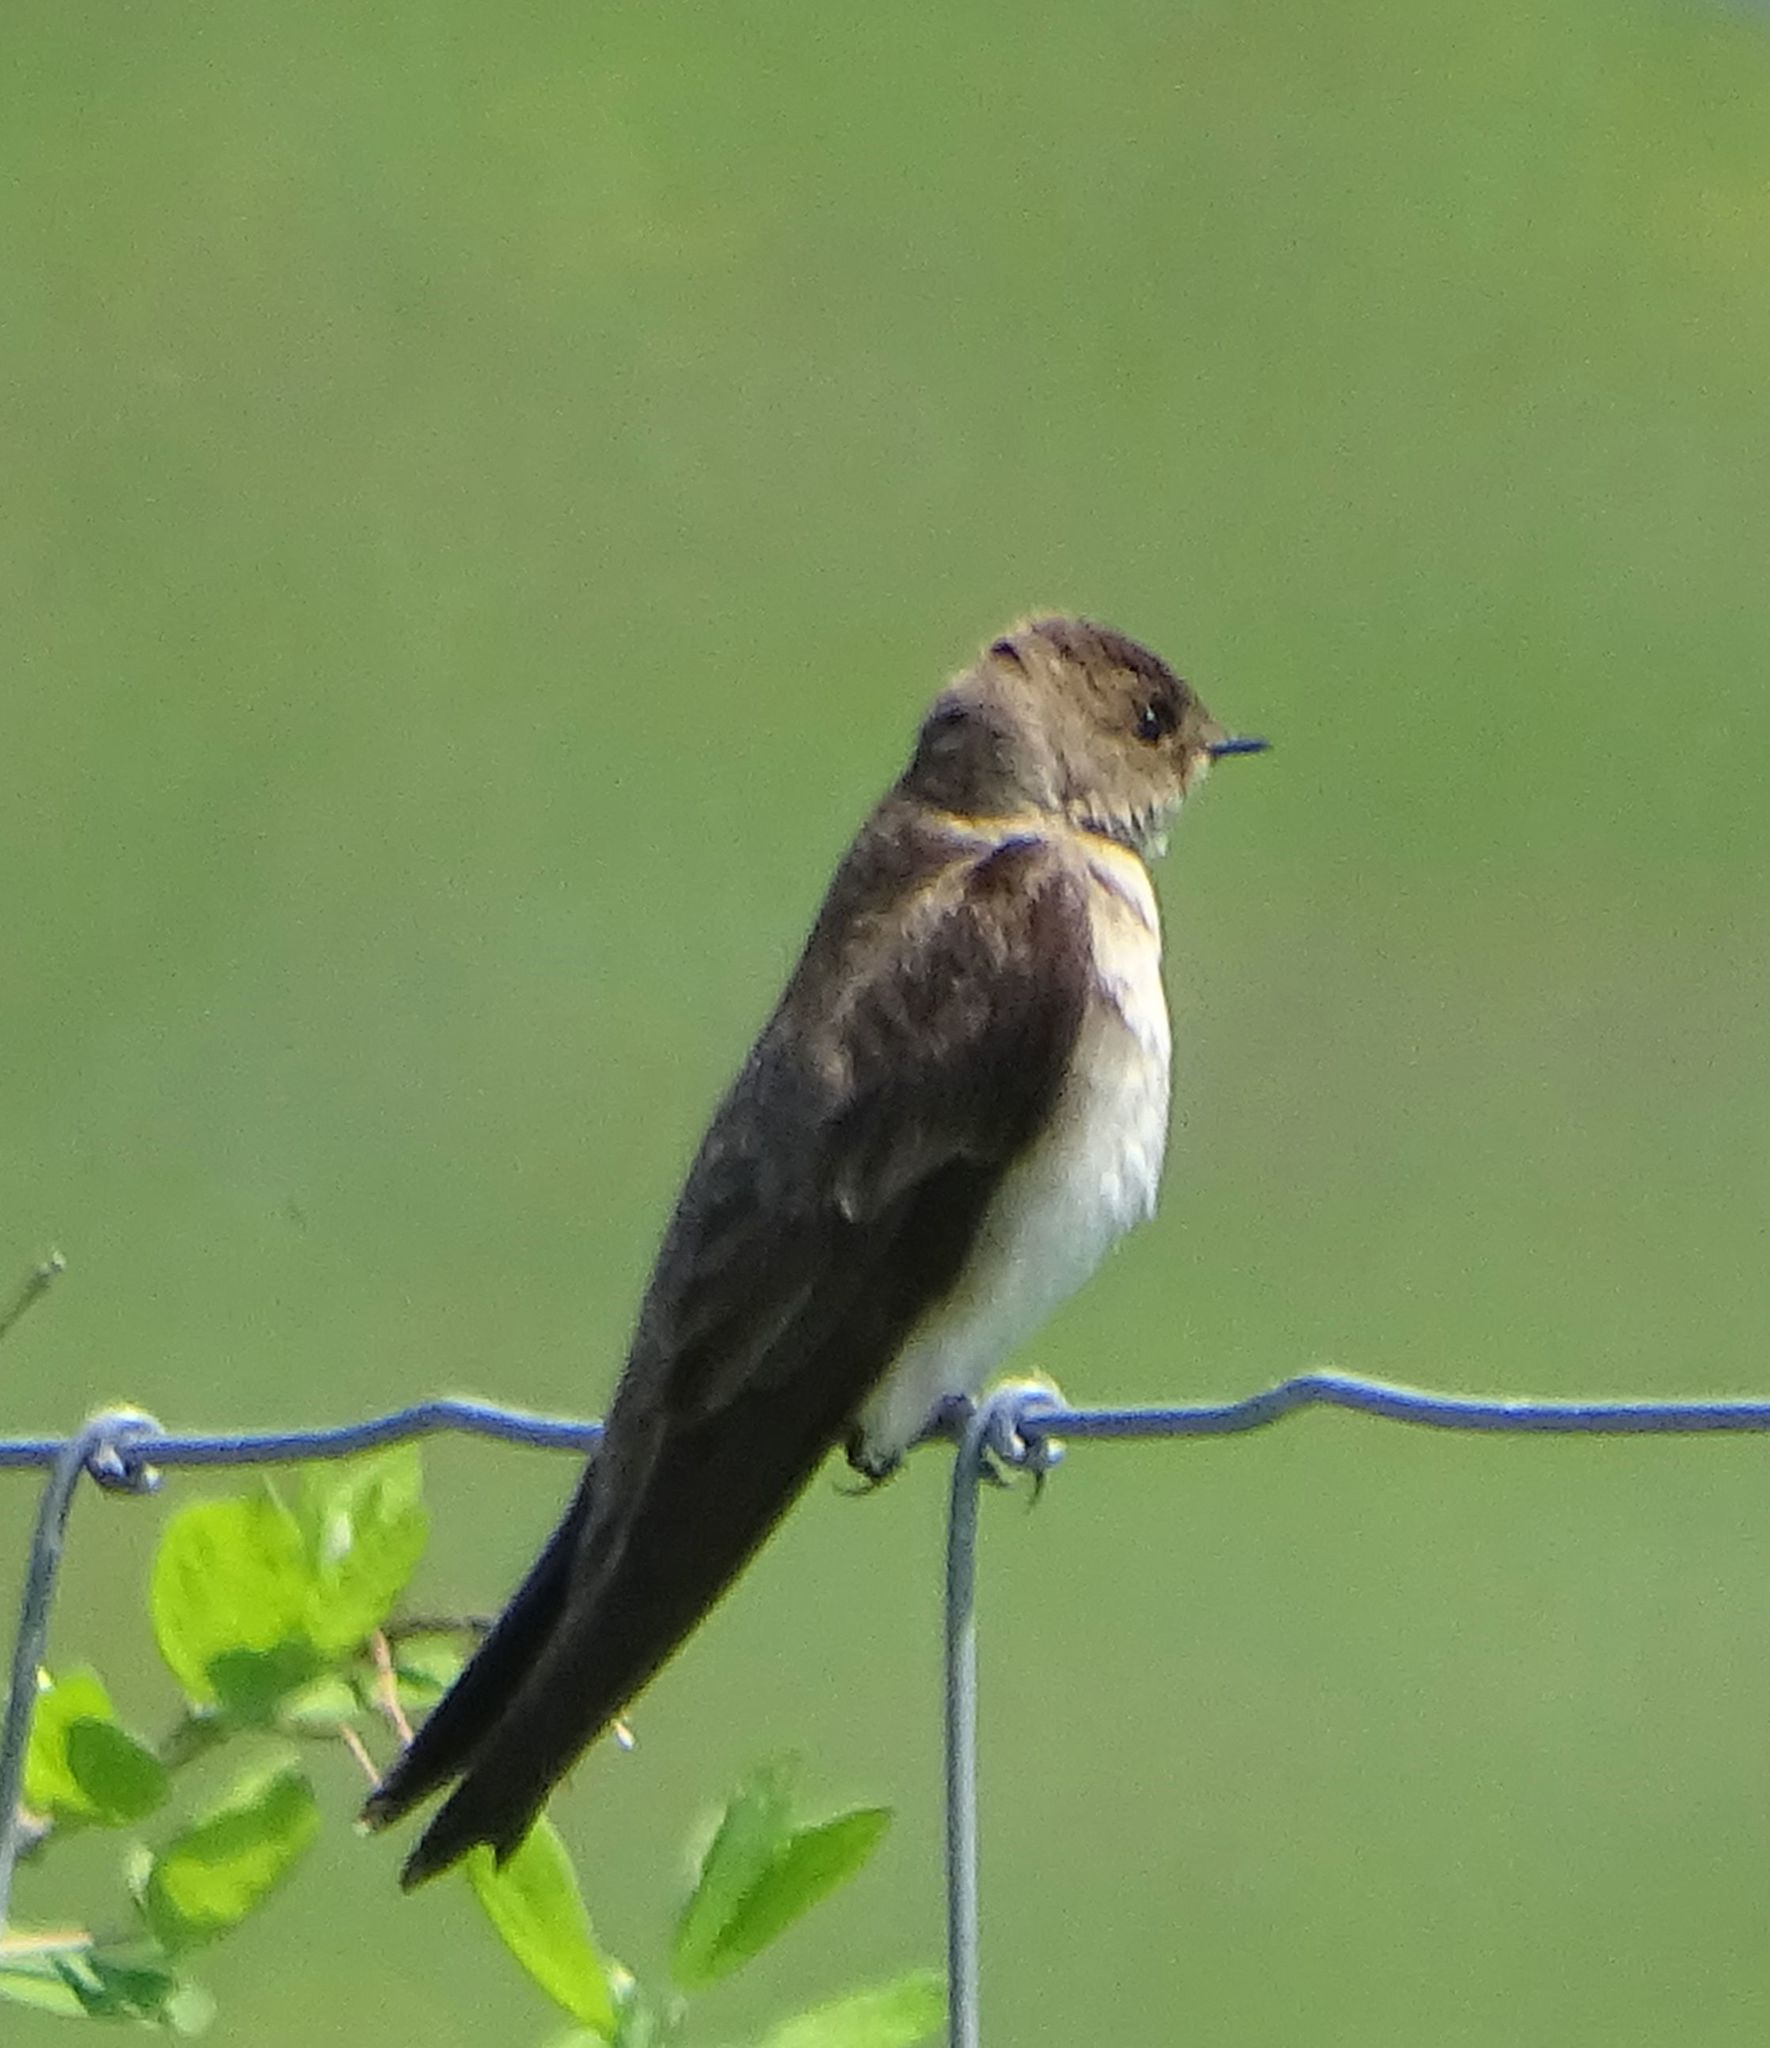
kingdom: Animalia
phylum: Chordata
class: Aves
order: Passeriformes
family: Hirundinidae
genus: Stelgidopteryx
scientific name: Stelgidopteryx serripennis
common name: Northern rough-winged swallow
